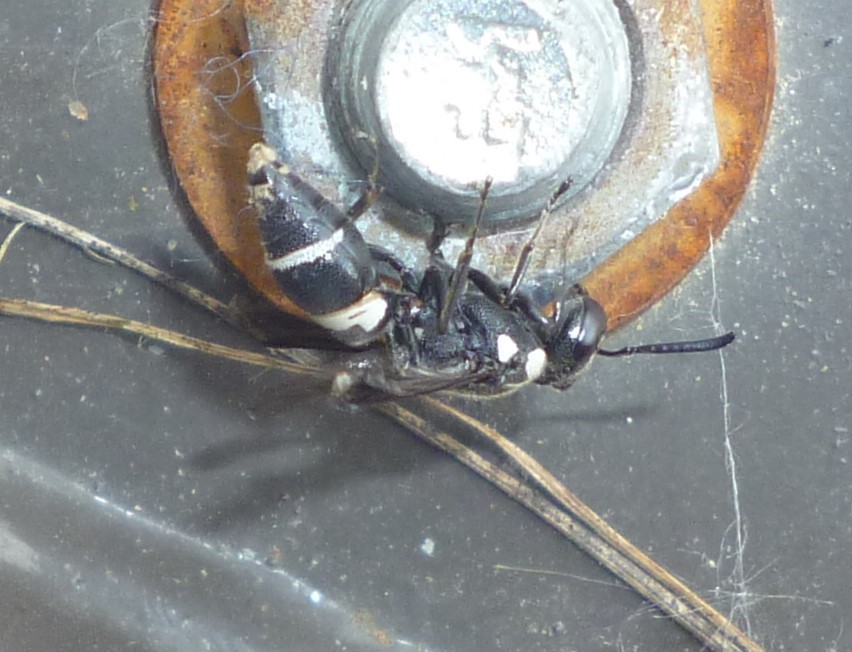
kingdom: Animalia
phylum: Arthropoda
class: Insecta
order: Hymenoptera
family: Eumenidae
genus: Euodynerus
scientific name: Euodynerus megaera
